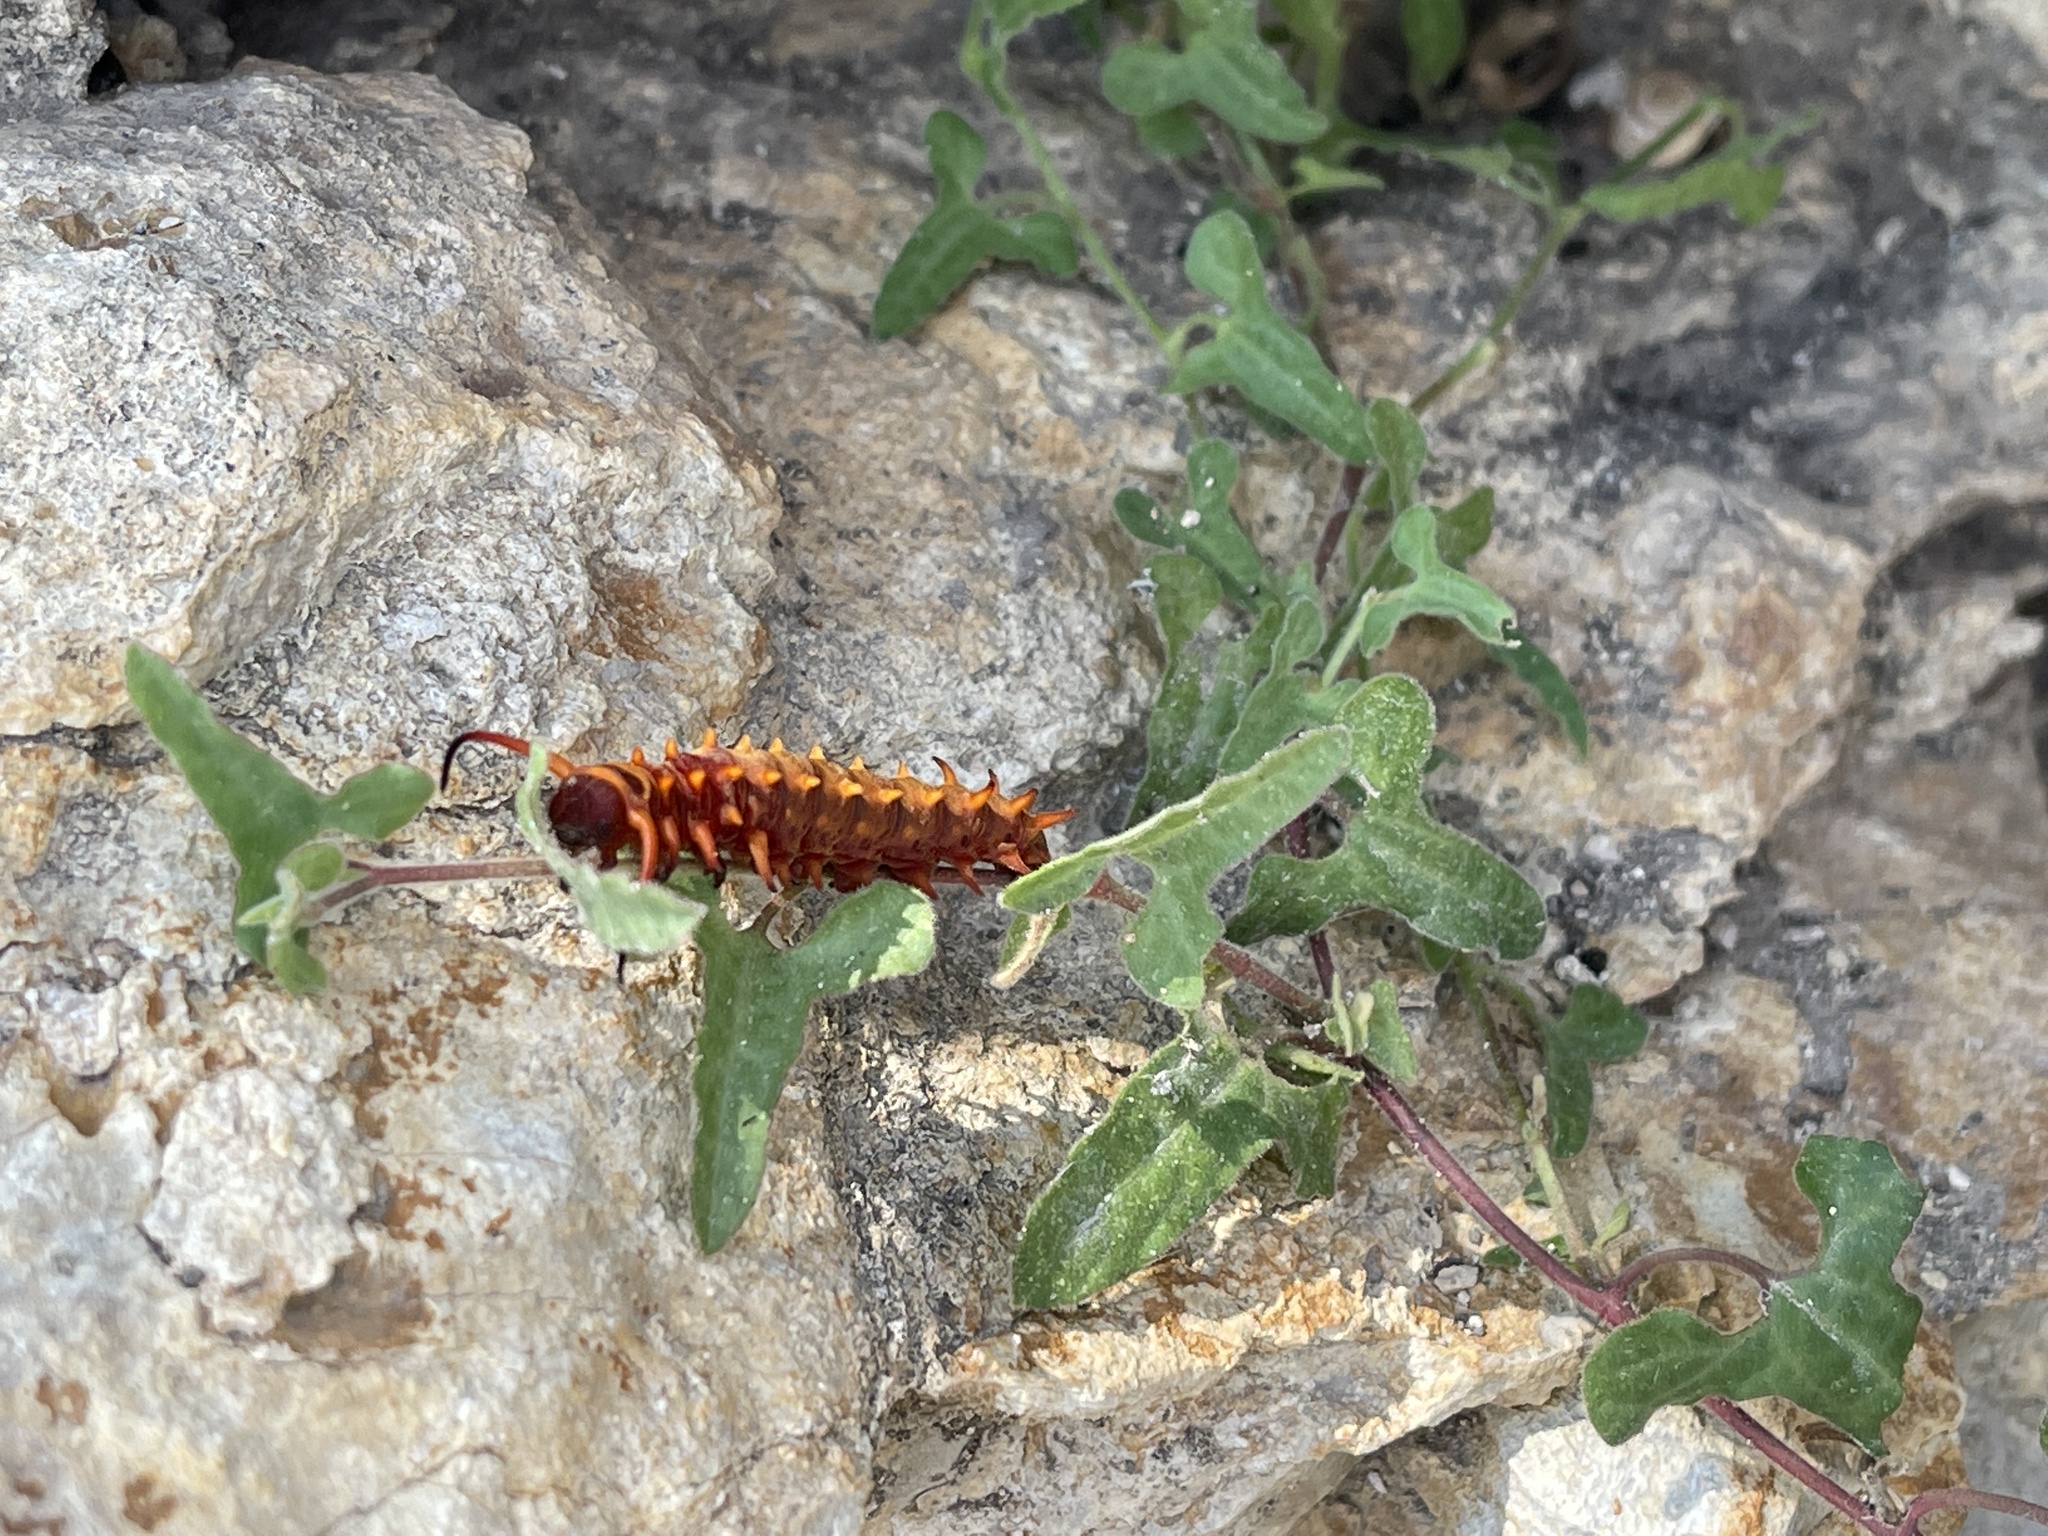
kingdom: Animalia
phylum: Arthropoda
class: Insecta
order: Lepidoptera
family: Papilionidae
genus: Battus
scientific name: Battus philenor
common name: Pipevine swallowtail
